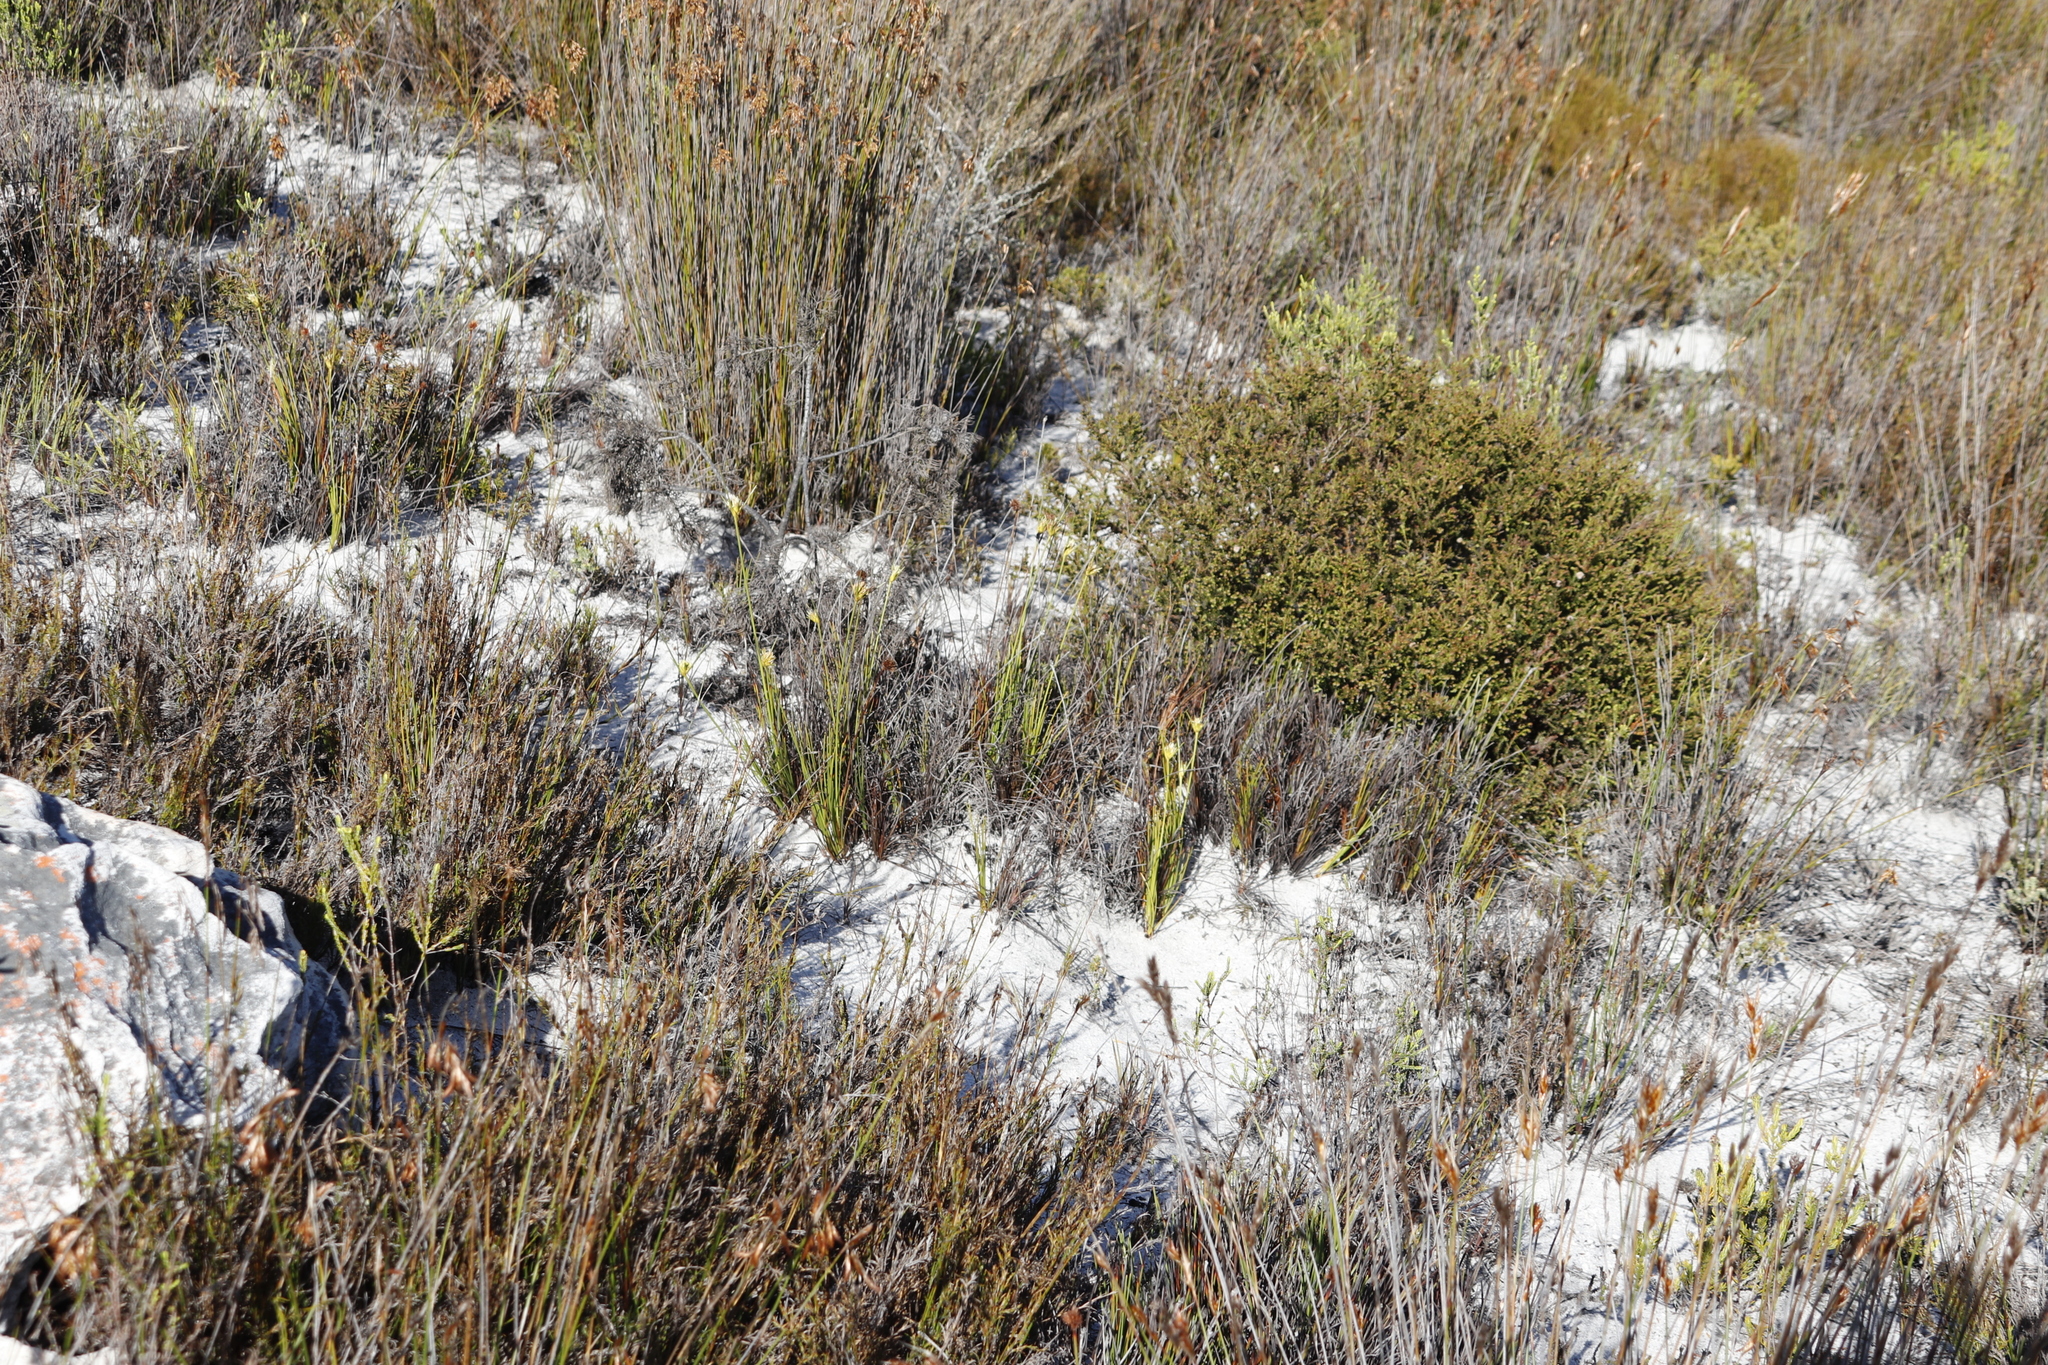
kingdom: Plantae
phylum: Tracheophyta
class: Liliopsida
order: Poales
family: Cyperaceae
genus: Ficinia
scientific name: Ficinia pallens
